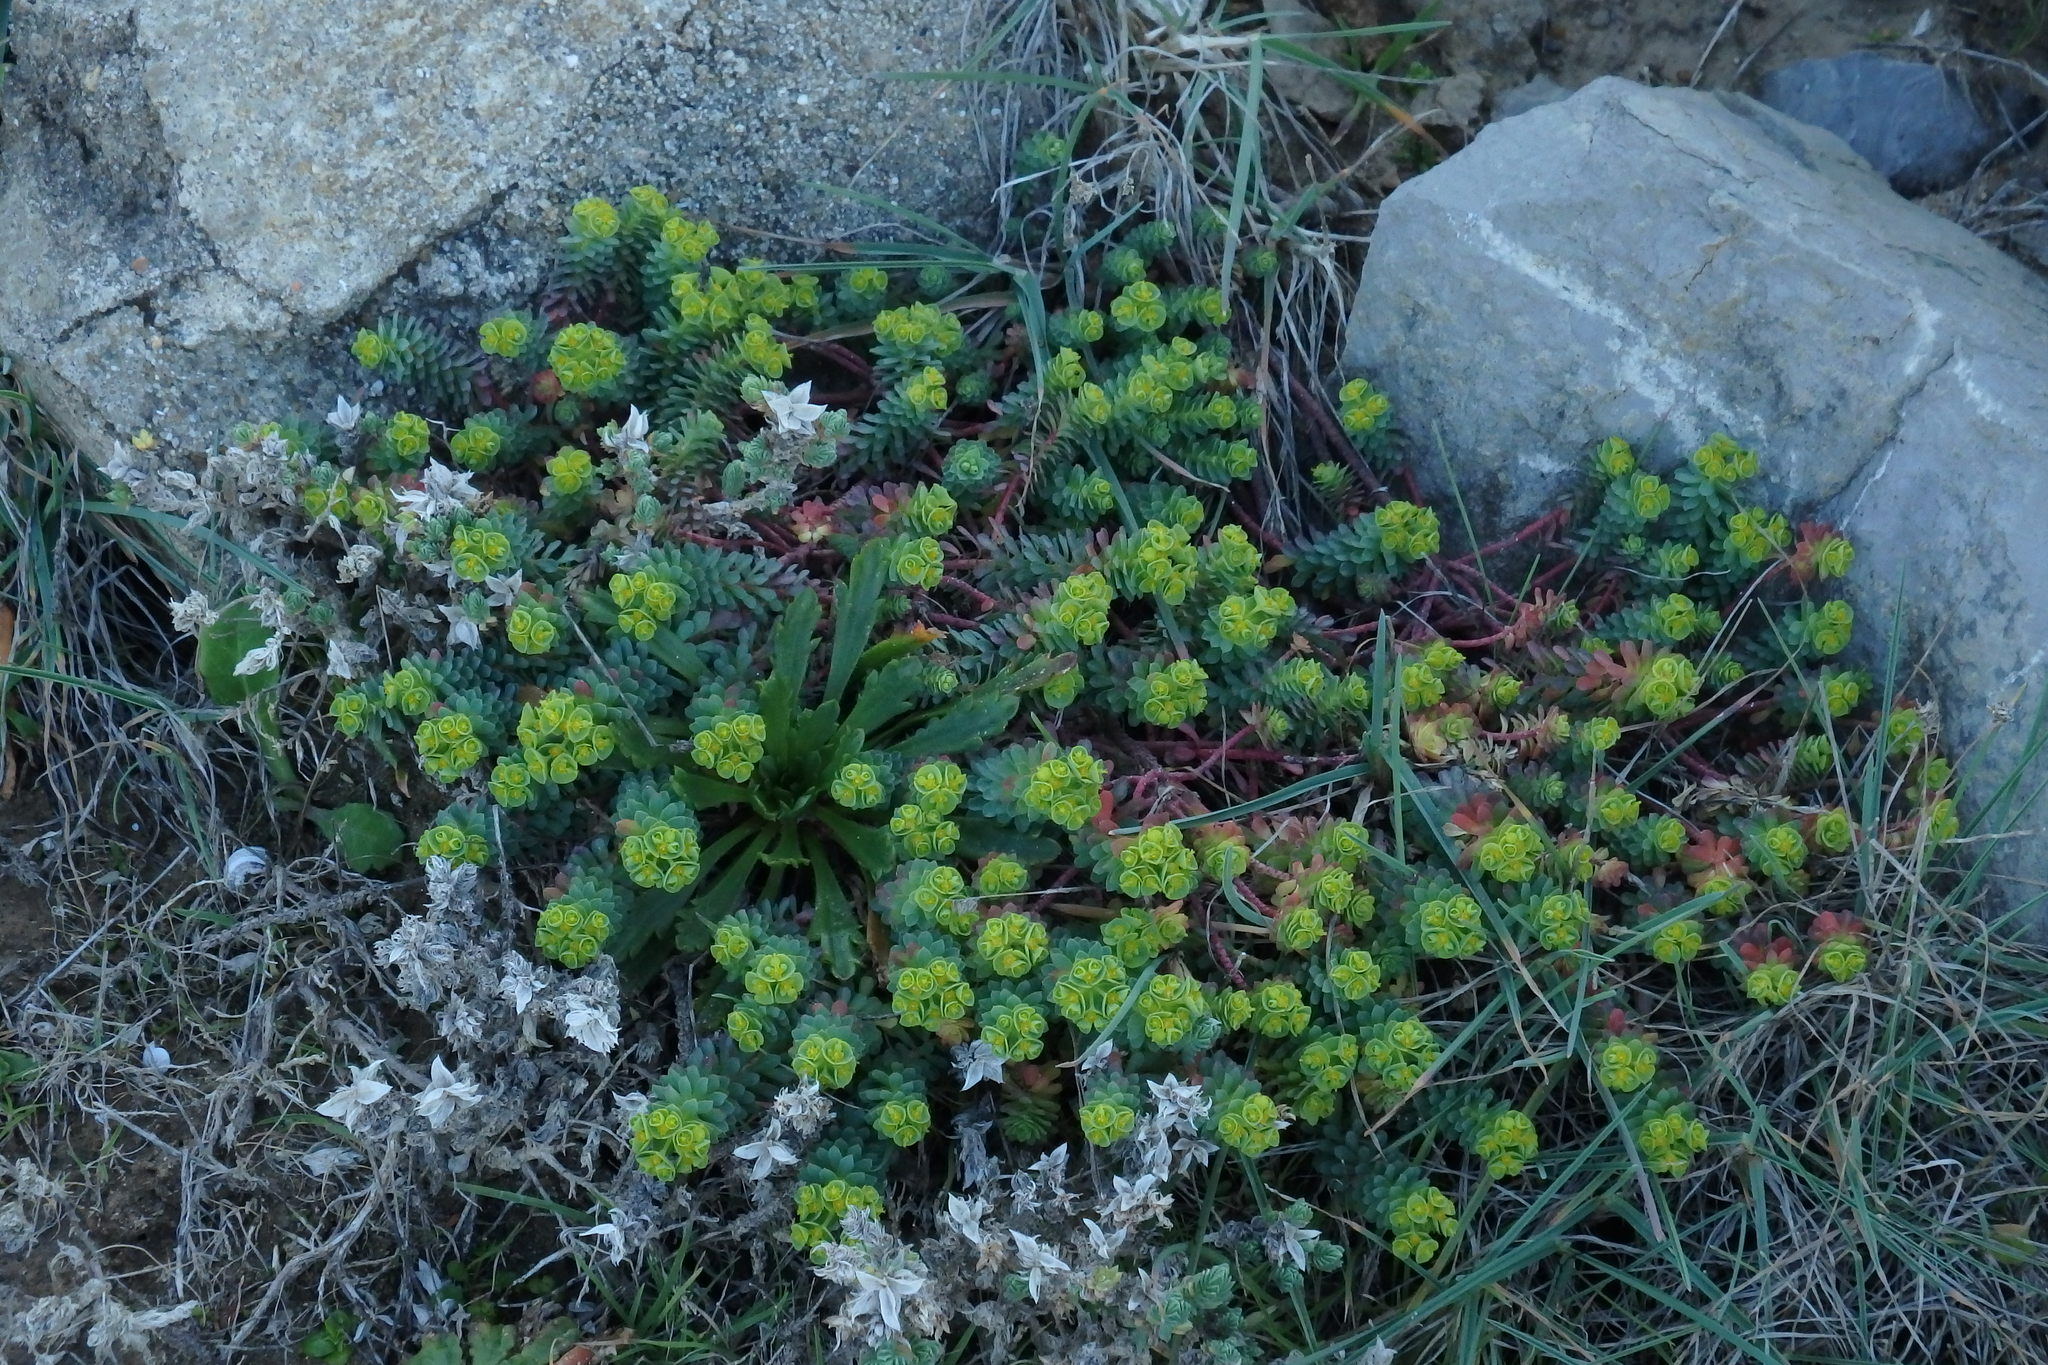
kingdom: Plantae
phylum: Tracheophyta
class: Magnoliopsida
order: Malpighiales
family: Euphorbiaceae
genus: Euphorbia
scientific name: Euphorbia portlandica
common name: Portland spurge
